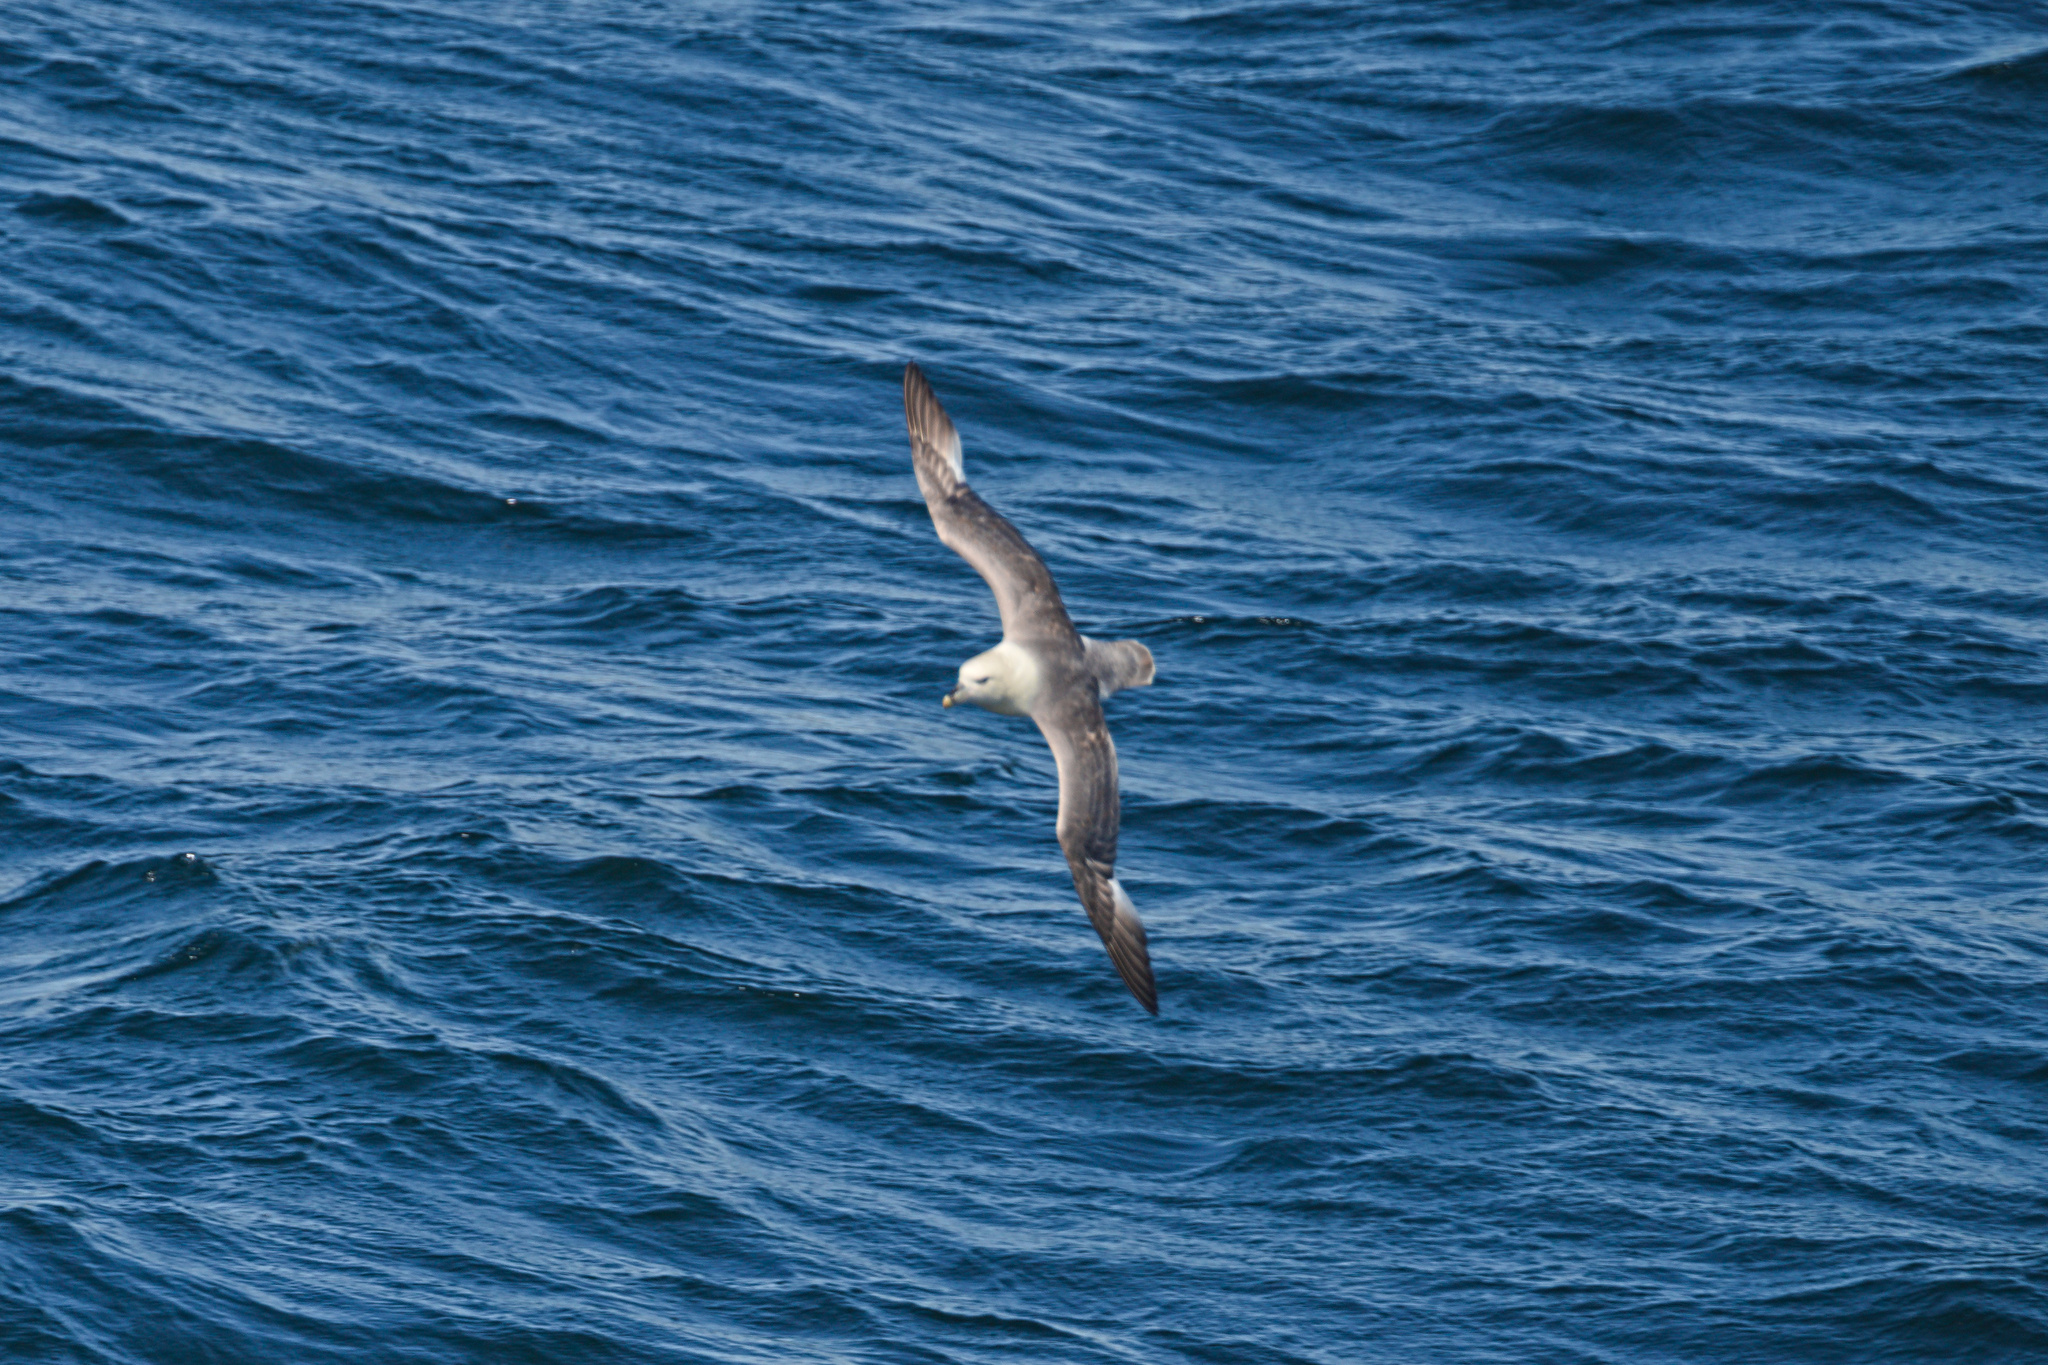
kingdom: Animalia
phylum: Chordata
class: Aves
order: Procellariiformes
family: Procellariidae
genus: Fulmarus
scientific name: Fulmarus glacialis
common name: Northern fulmar
